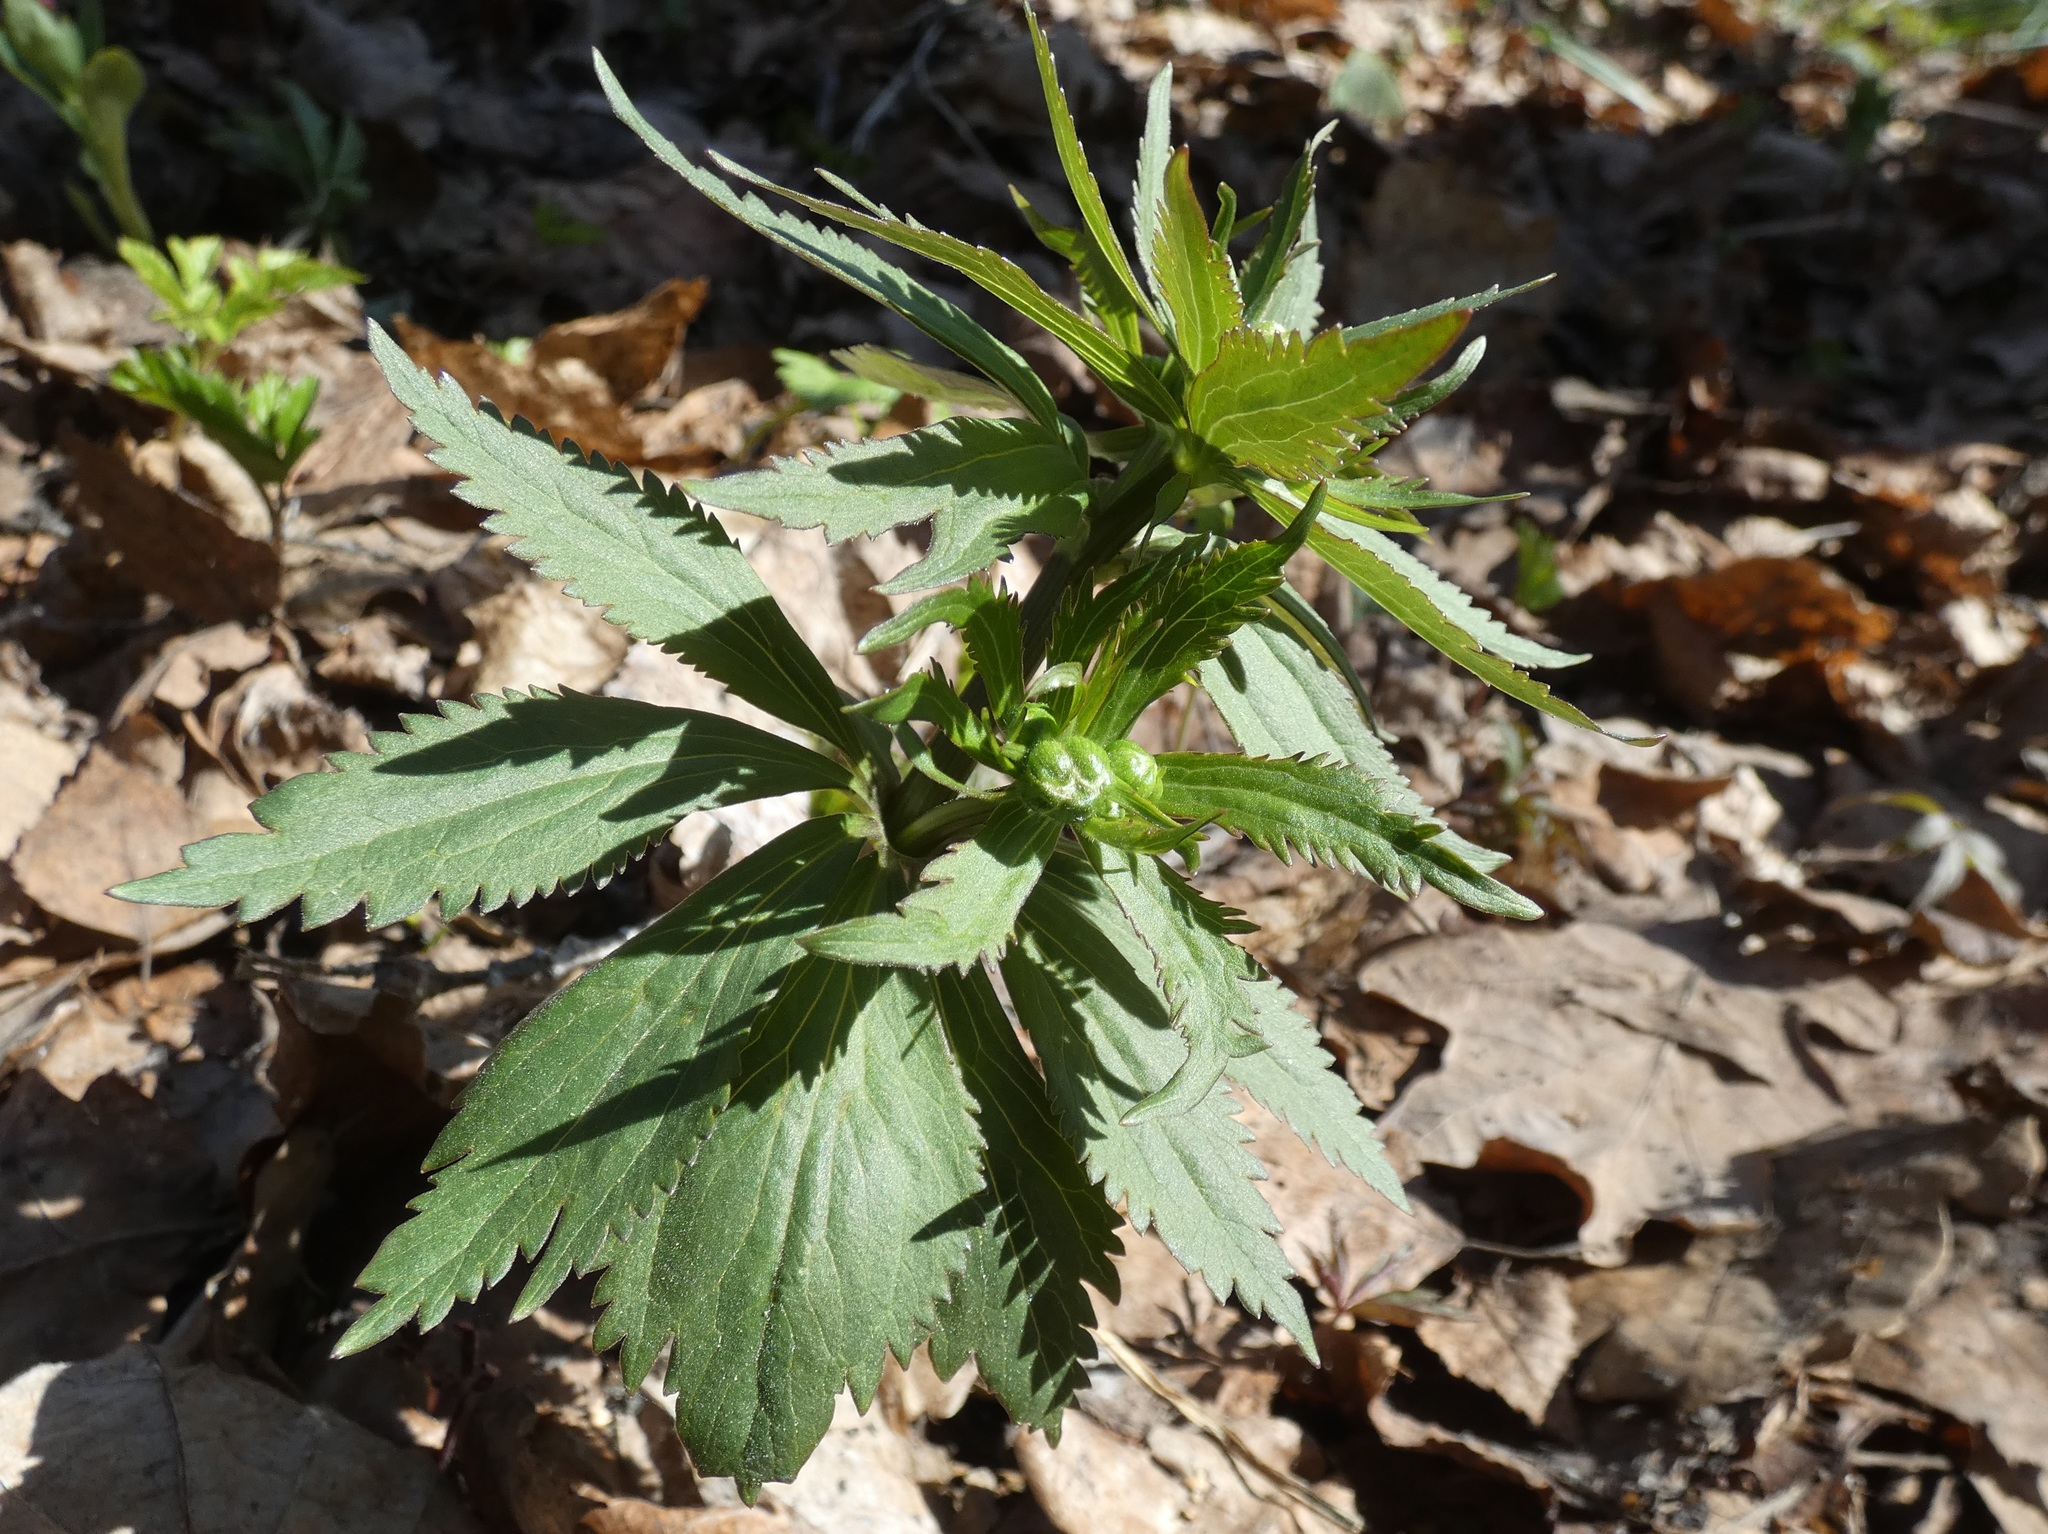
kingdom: Plantae
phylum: Tracheophyta
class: Magnoliopsida
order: Ranunculales
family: Ranunculaceae
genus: Ranunculus
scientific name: Ranunculus cassubicus
